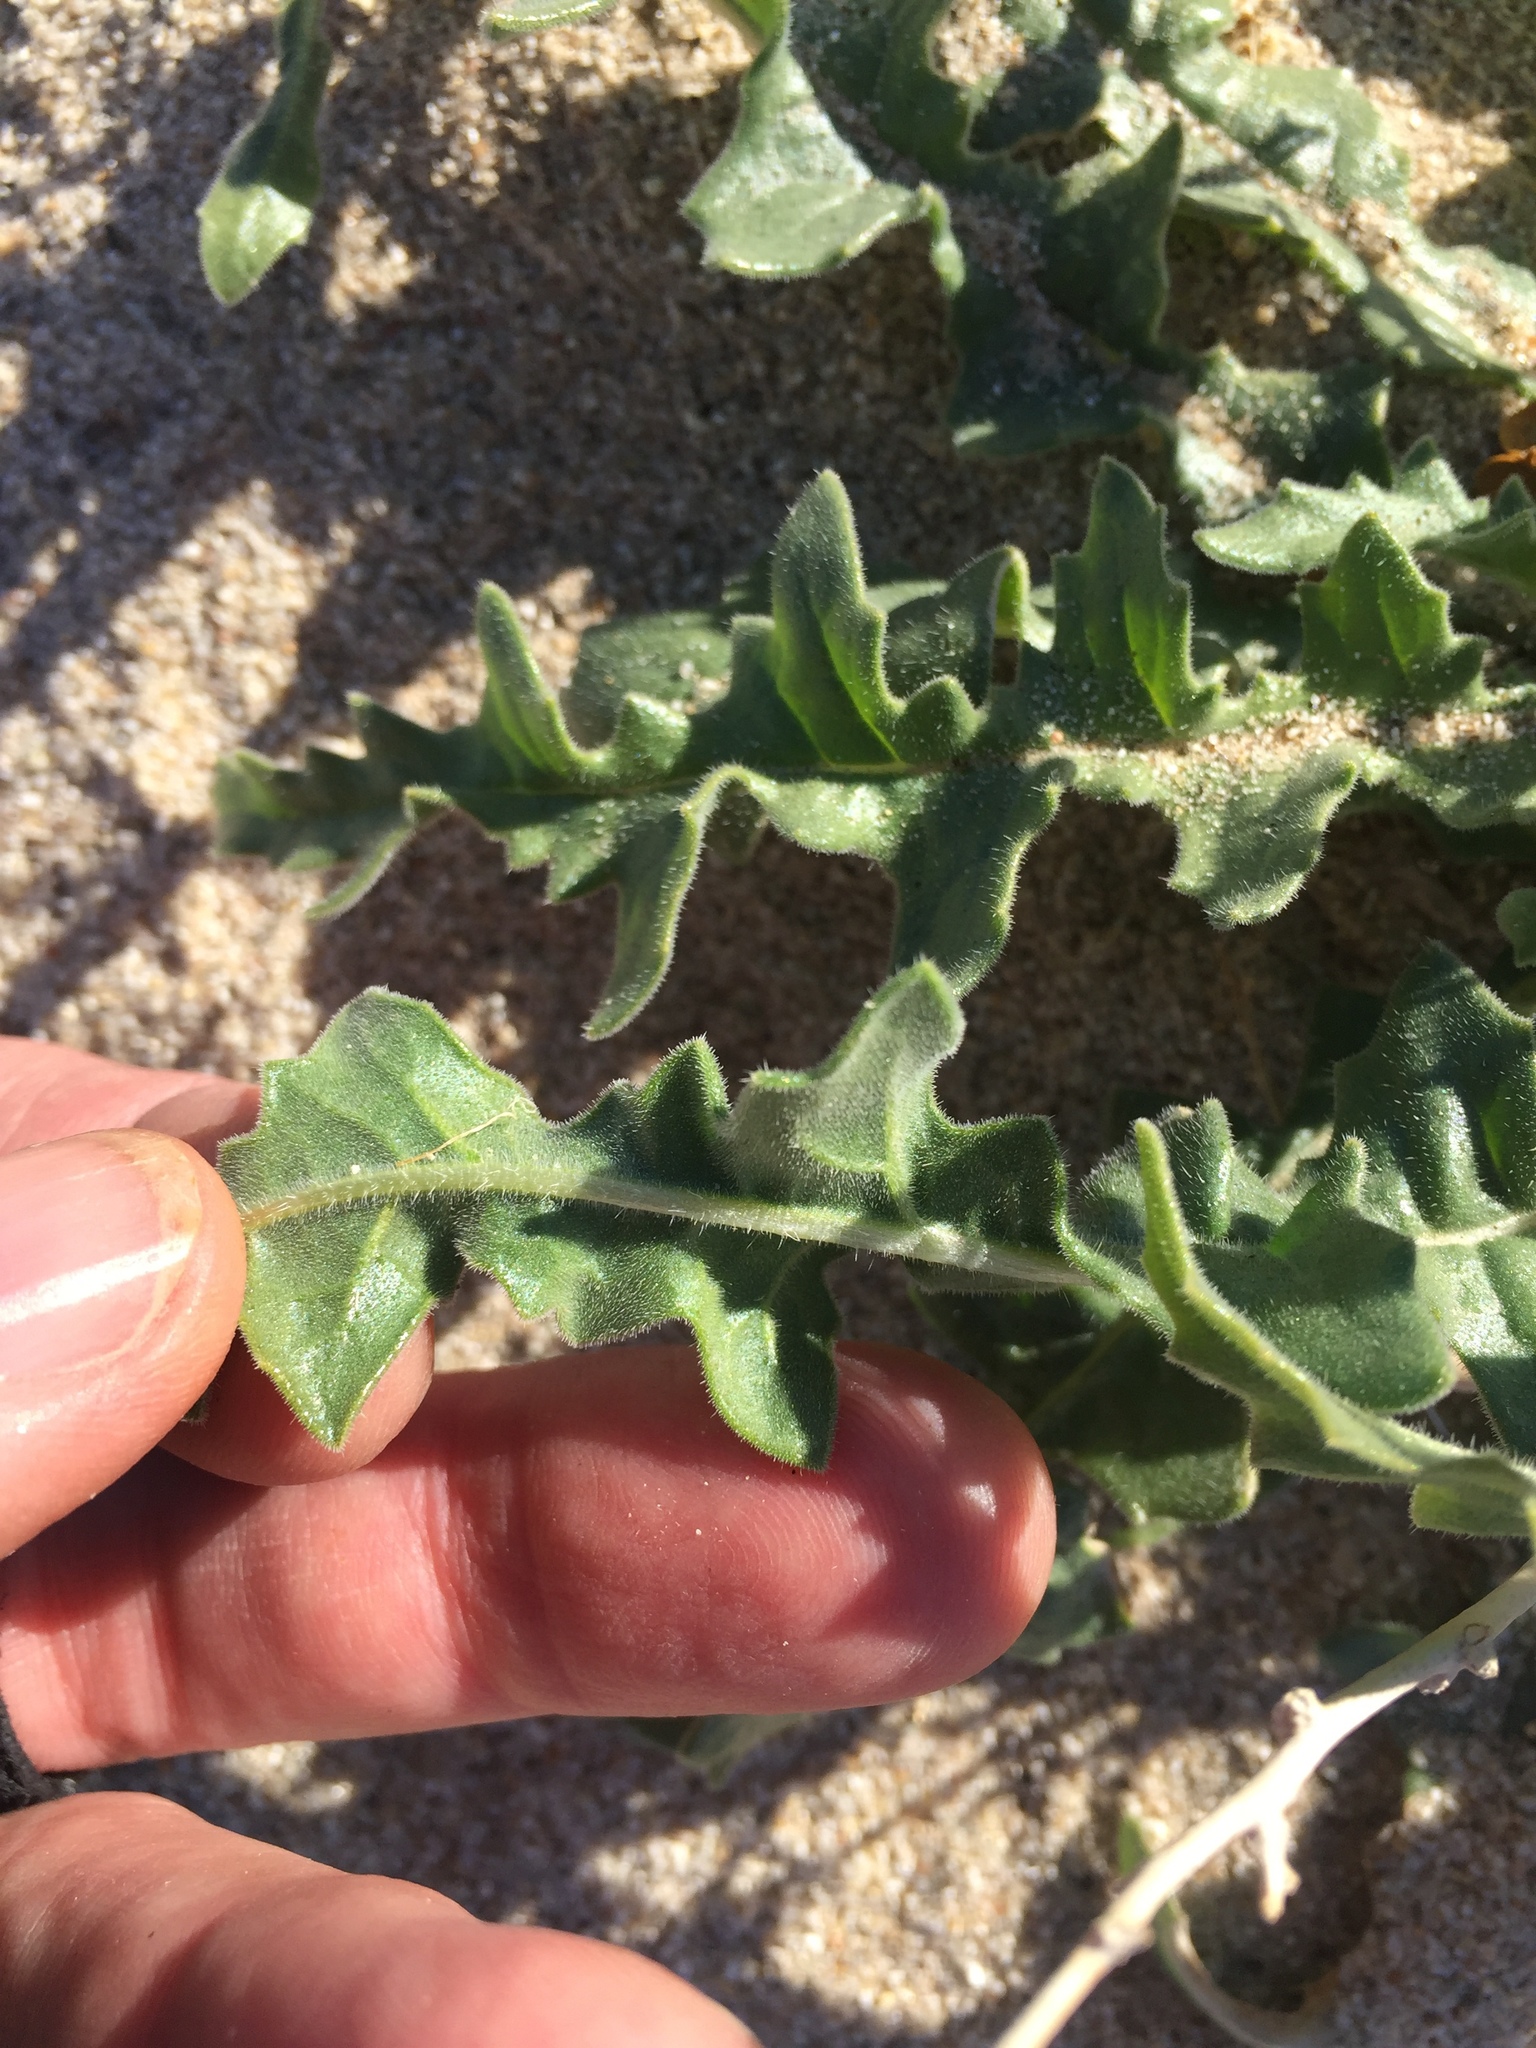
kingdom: Plantae
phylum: Tracheophyta
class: Magnoliopsida
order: Cornales
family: Loasaceae
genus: Mentzelia
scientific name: Mentzelia involucrata
